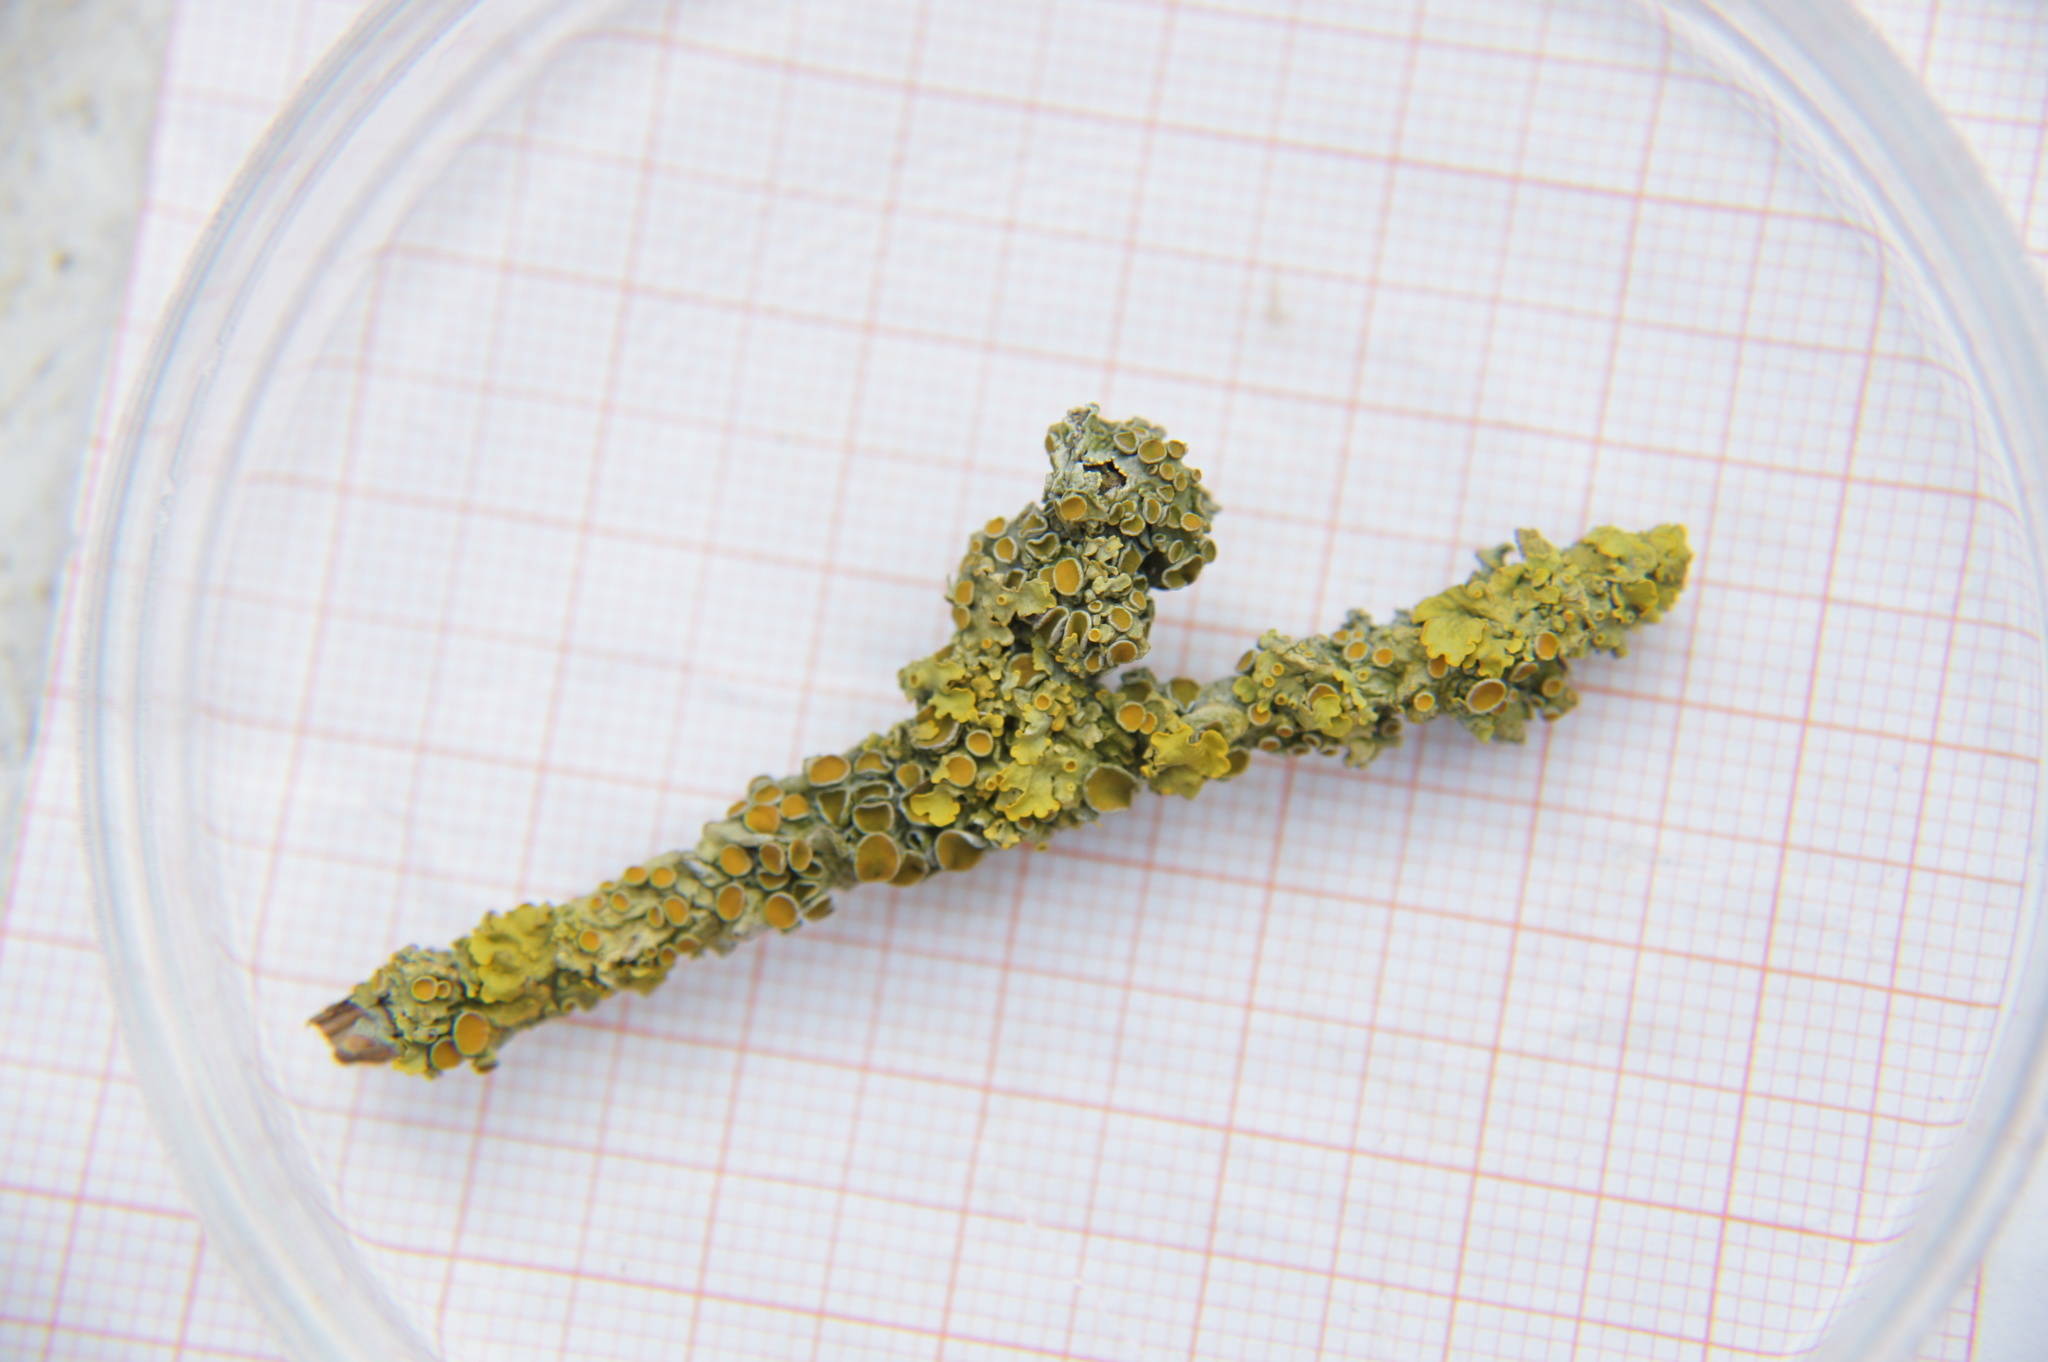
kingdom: Fungi
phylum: Ascomycota
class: Lecanoromycetes
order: Teloschistales
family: Teloschistaceae
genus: Xanthoria
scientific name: Xanthoria parietina
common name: Common orange lichen
